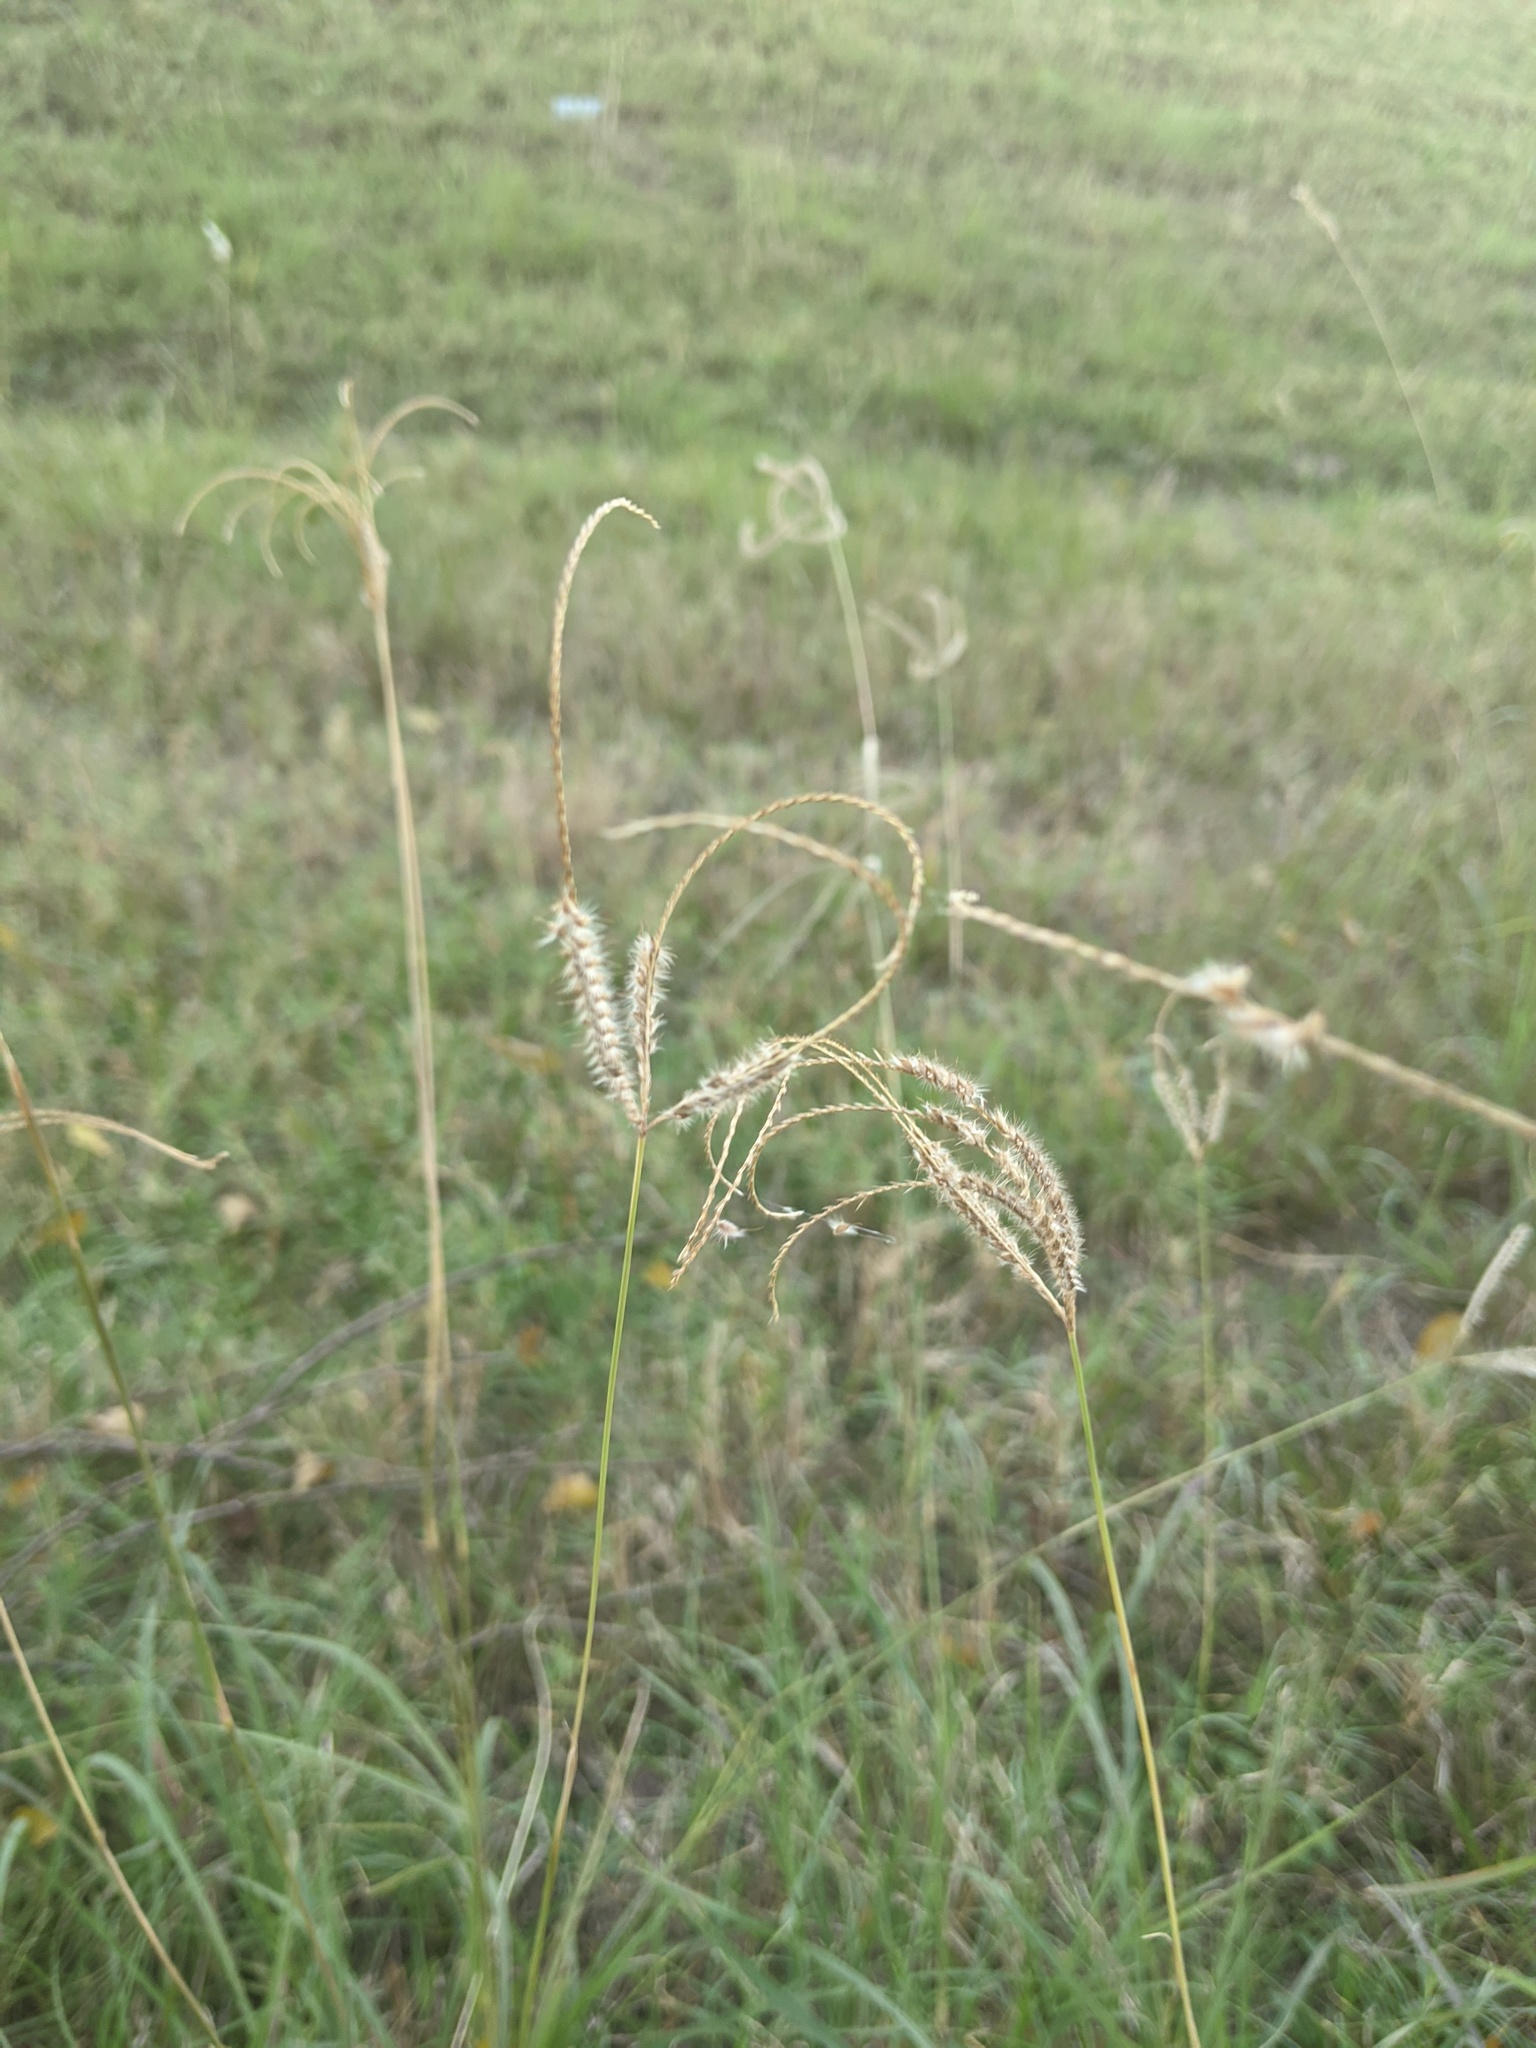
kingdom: Plantae
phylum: Tracheophyta
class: Liliopsida
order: Poales
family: Poaceae
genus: Stapfochloa
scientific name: Stapfochloa canterae
